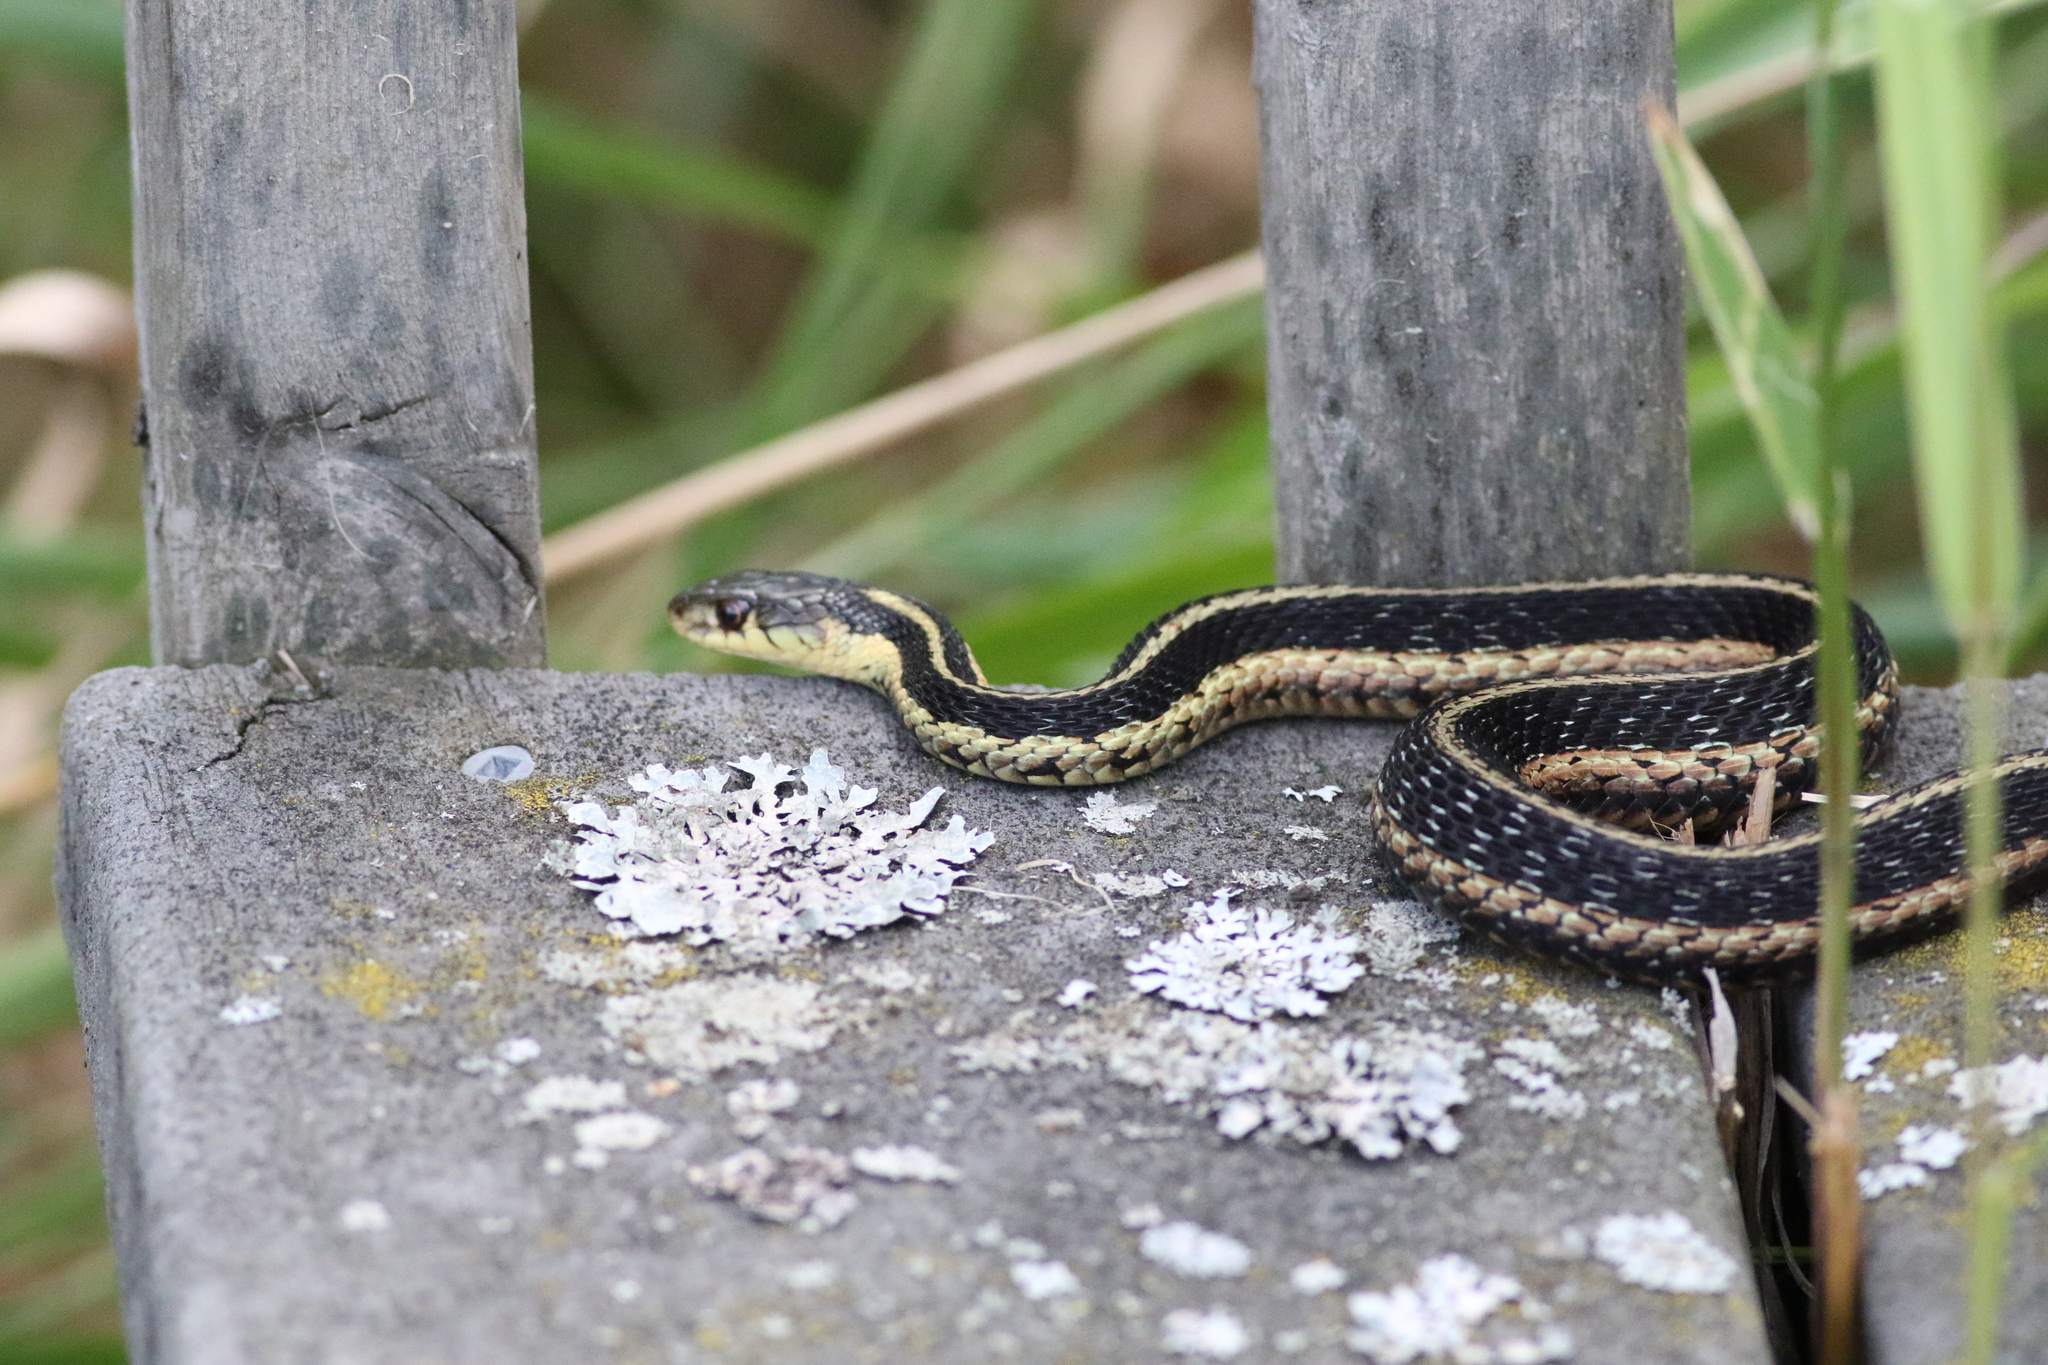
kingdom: Animalia
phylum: Chordata
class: Squamata
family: Colubridae
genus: Thamnophis
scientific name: Thamnophis sirtalis
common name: Common garter snake
